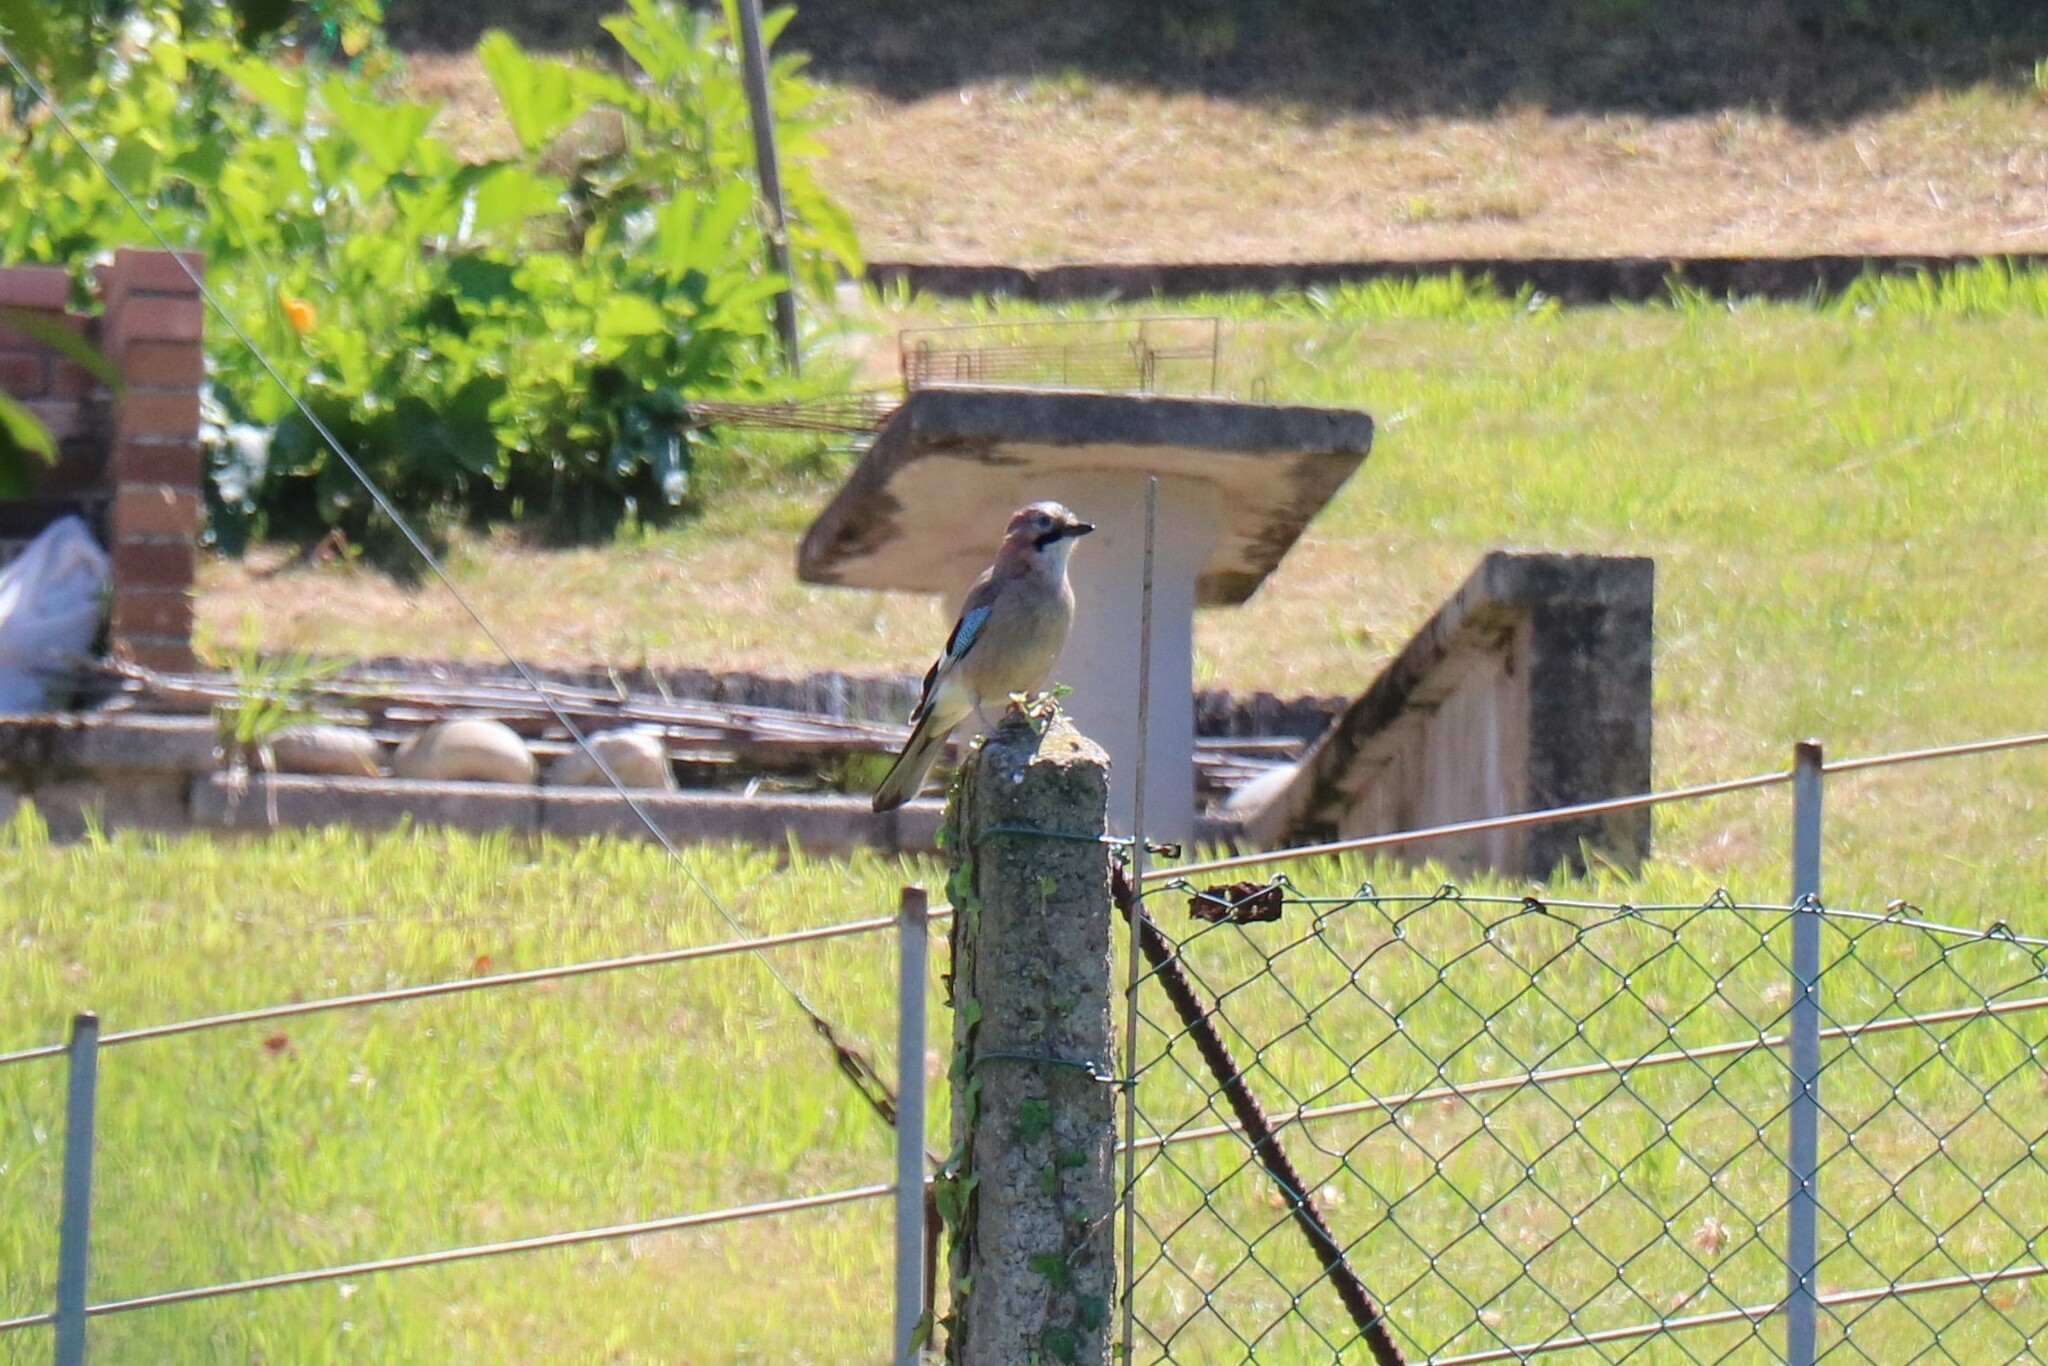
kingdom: Animalia
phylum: Chordata
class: Aves
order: Passeriformes
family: Corvidae
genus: Garrulus
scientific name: Garrulus glandarius
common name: Eurasian jay
